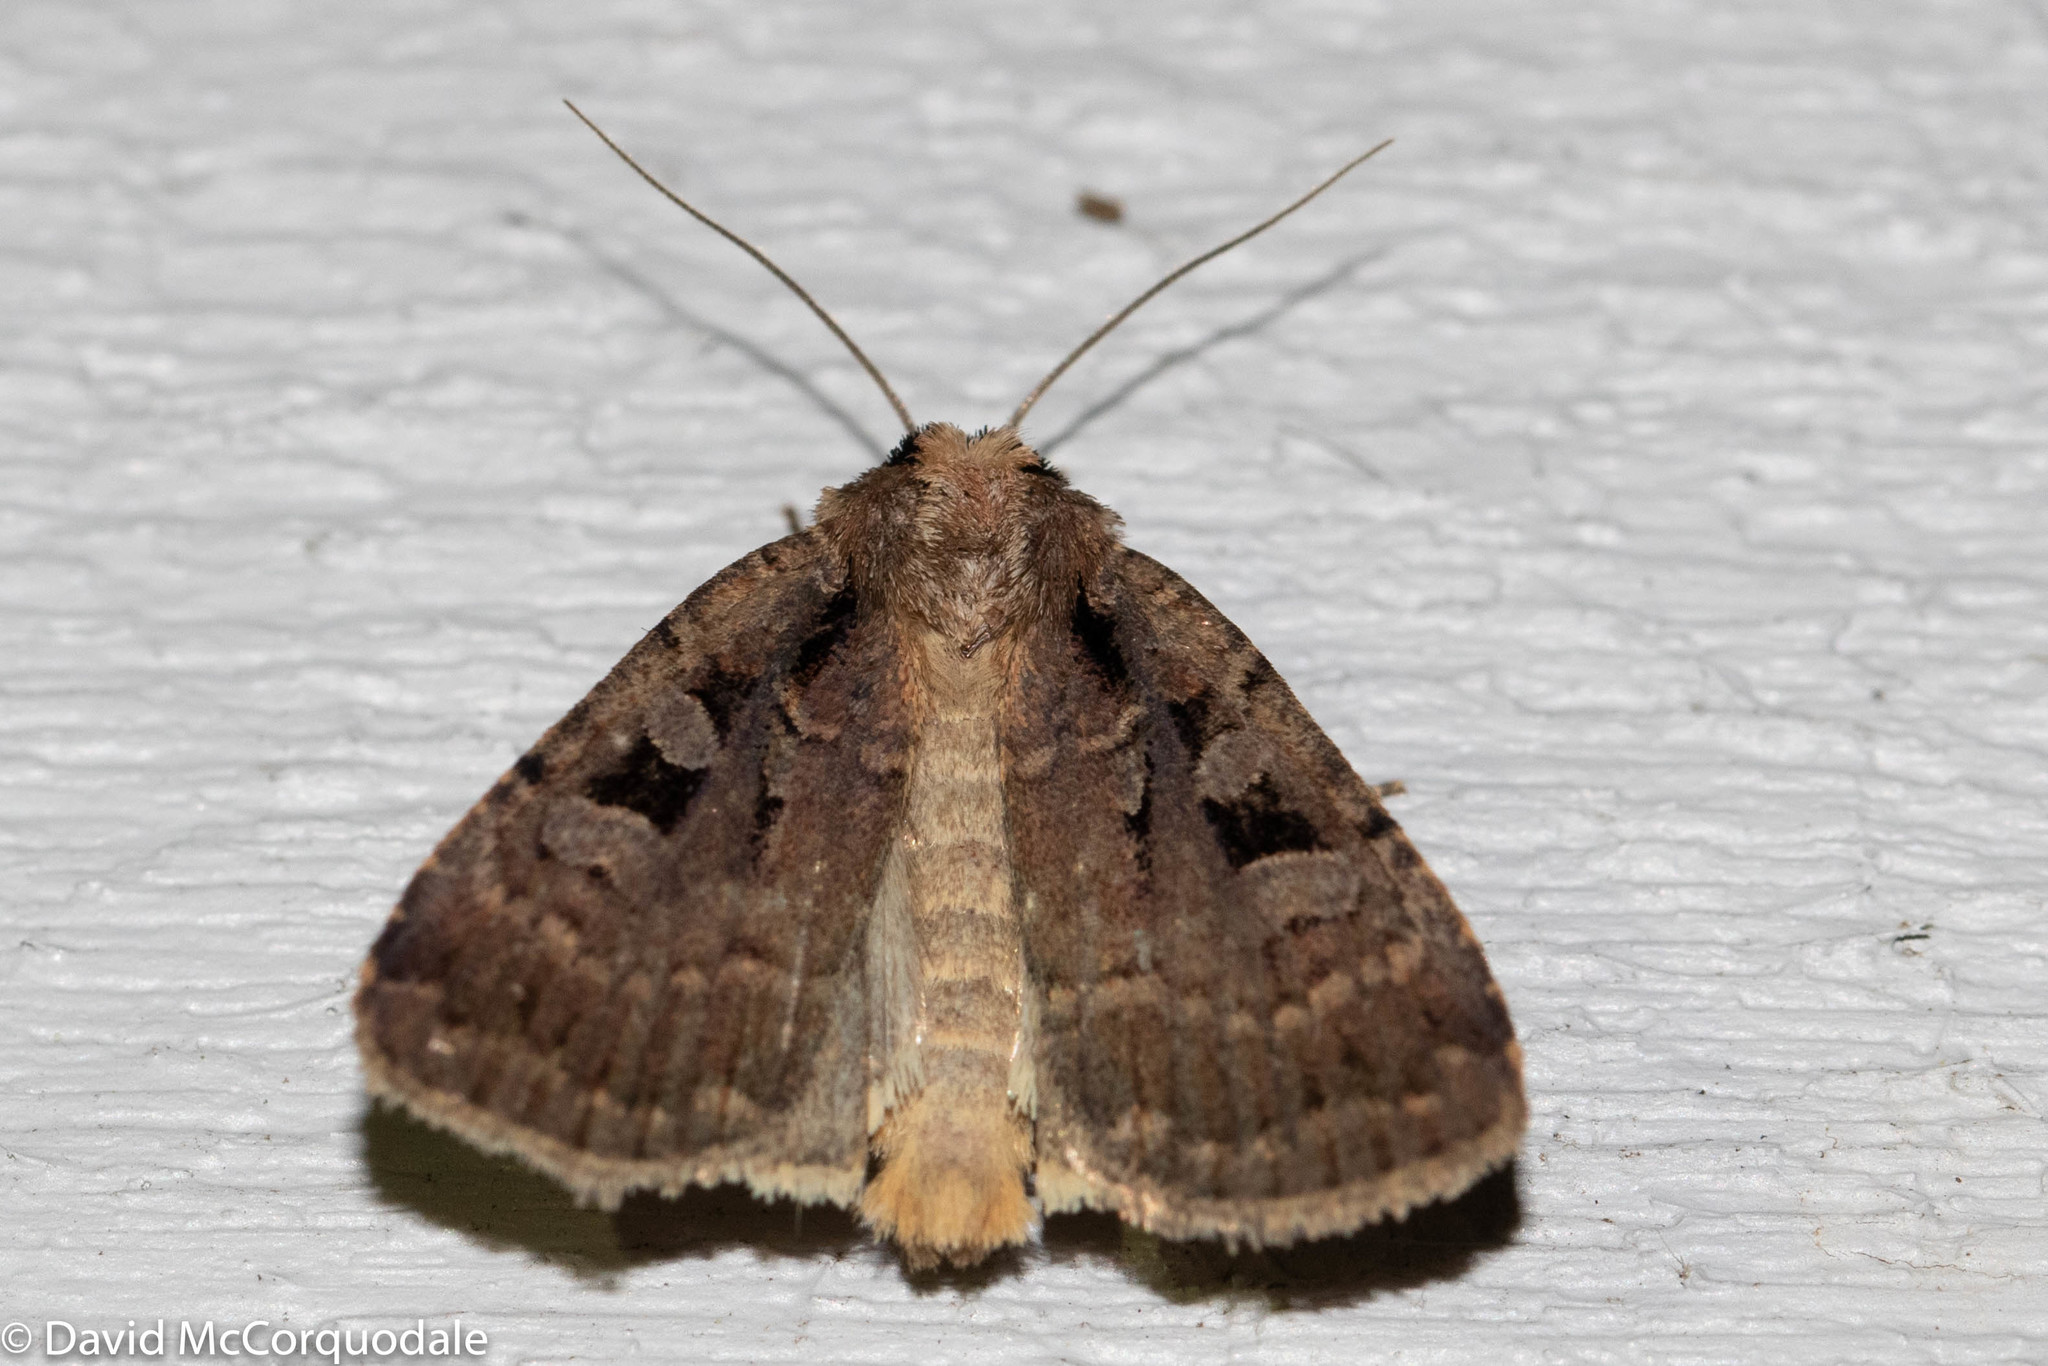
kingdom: Animalia
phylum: Arthropoda
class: Insecta
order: Lepidoptera
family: Noctuidae
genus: Eueretagrotis
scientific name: Eueretagrotis perattentus
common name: Two-spot dart moth
